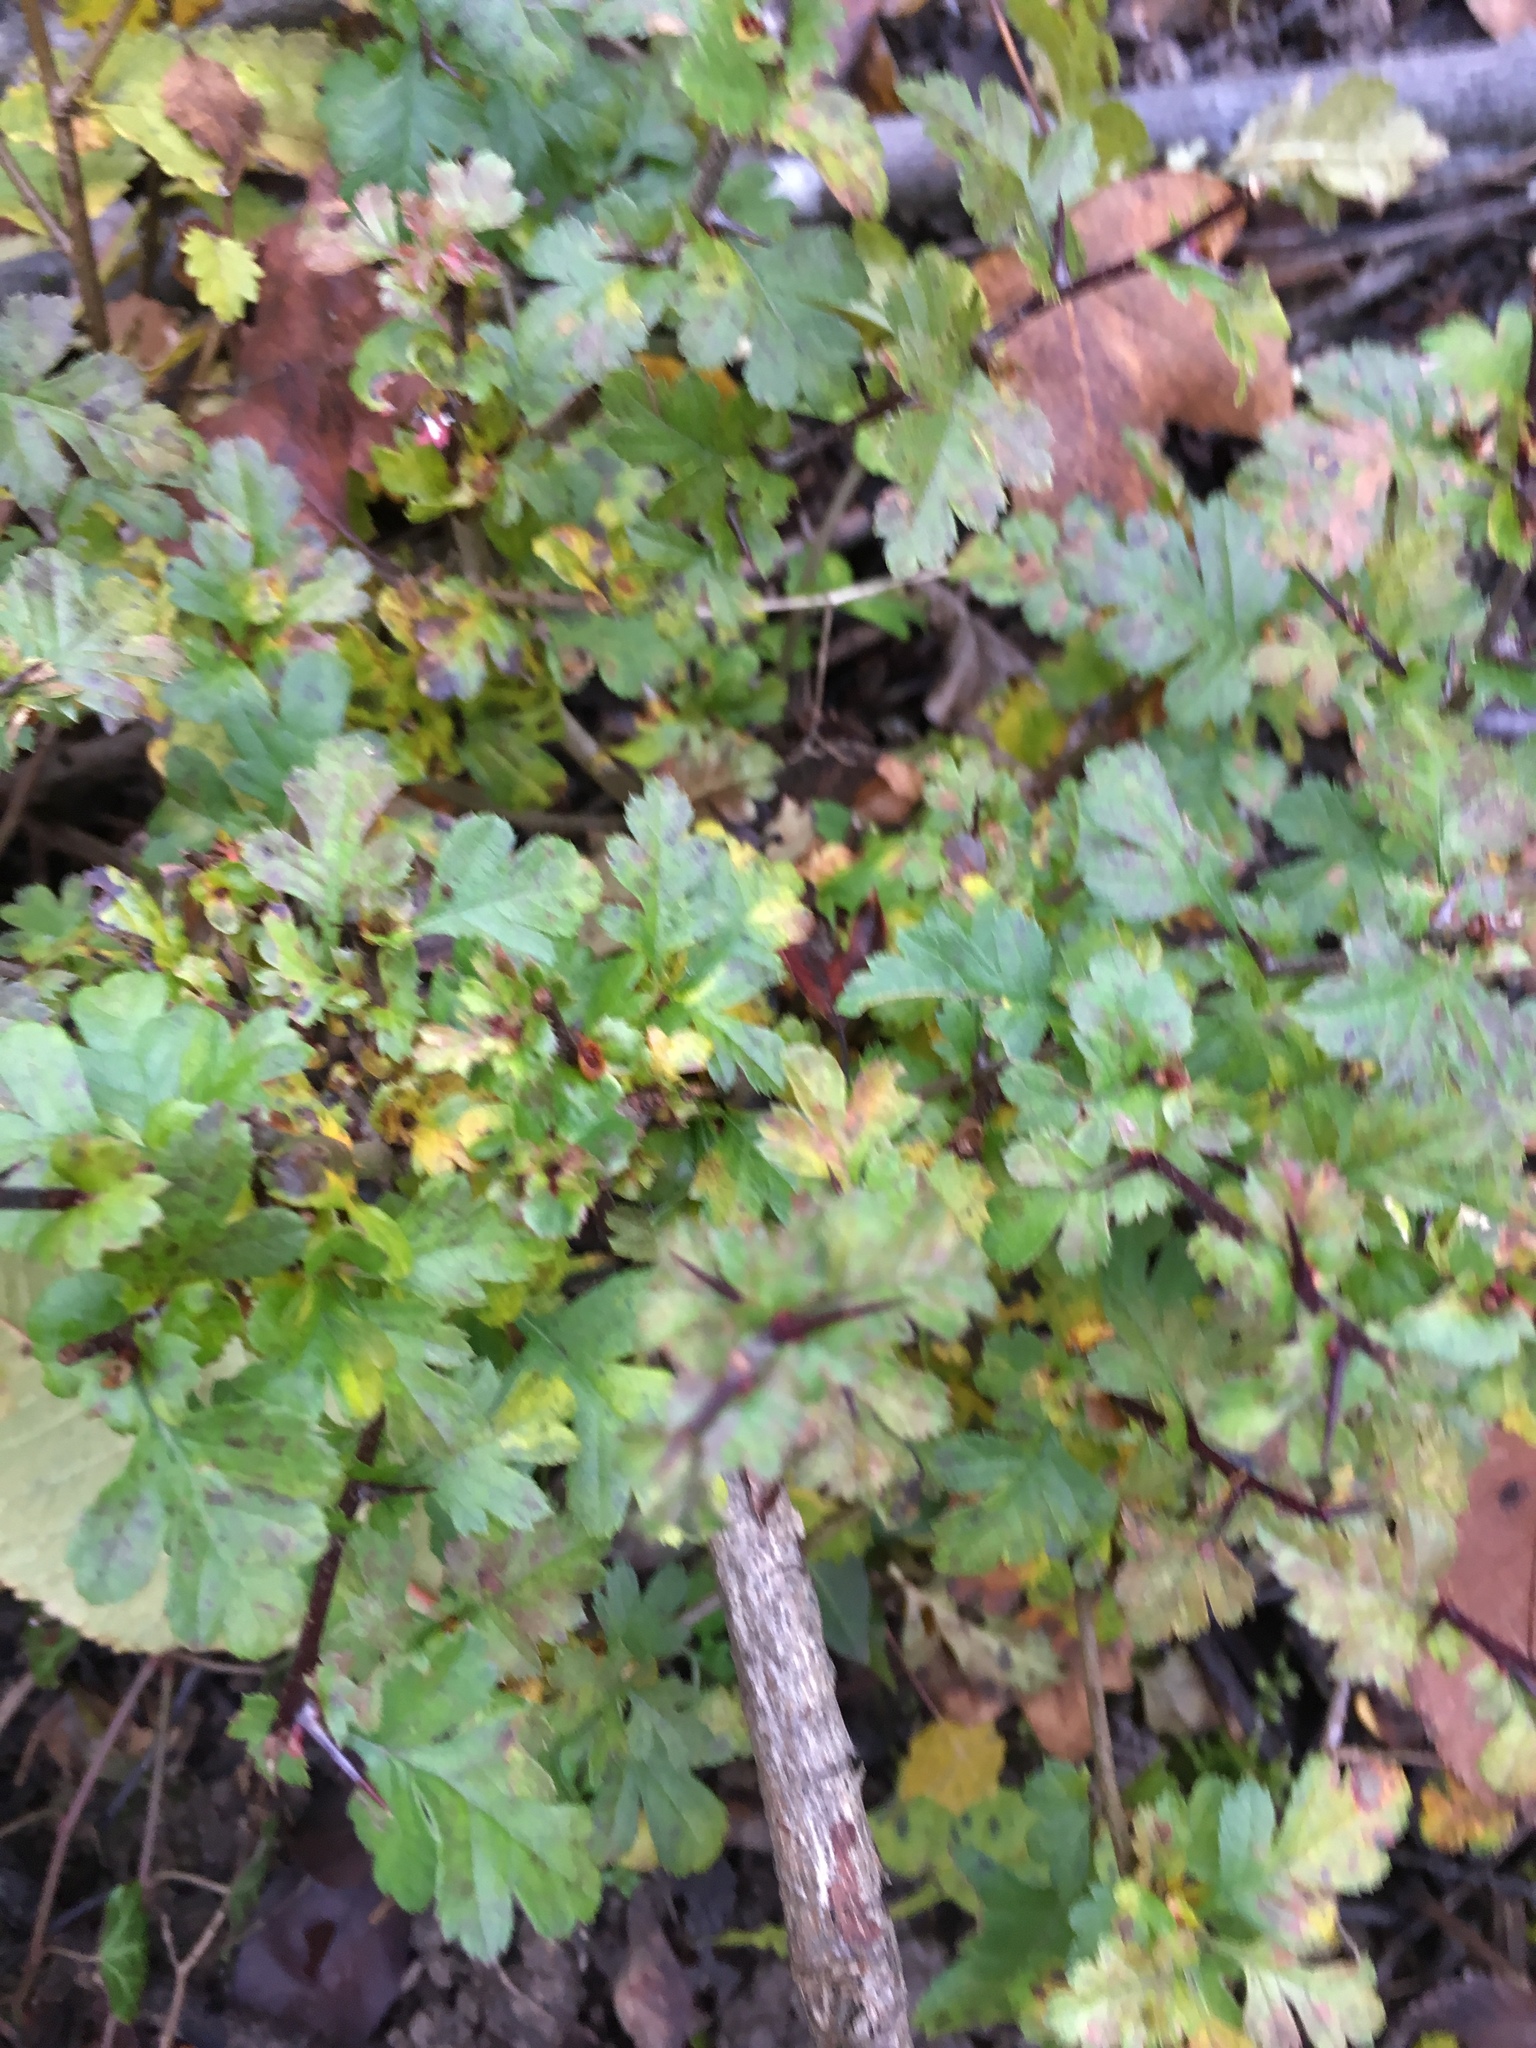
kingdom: Plantae
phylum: Tracheophyta
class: Magnoliopsida
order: Rosales
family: Rosaceae
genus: Crataegus
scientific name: Crataegus monogyna
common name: Hawthorn
